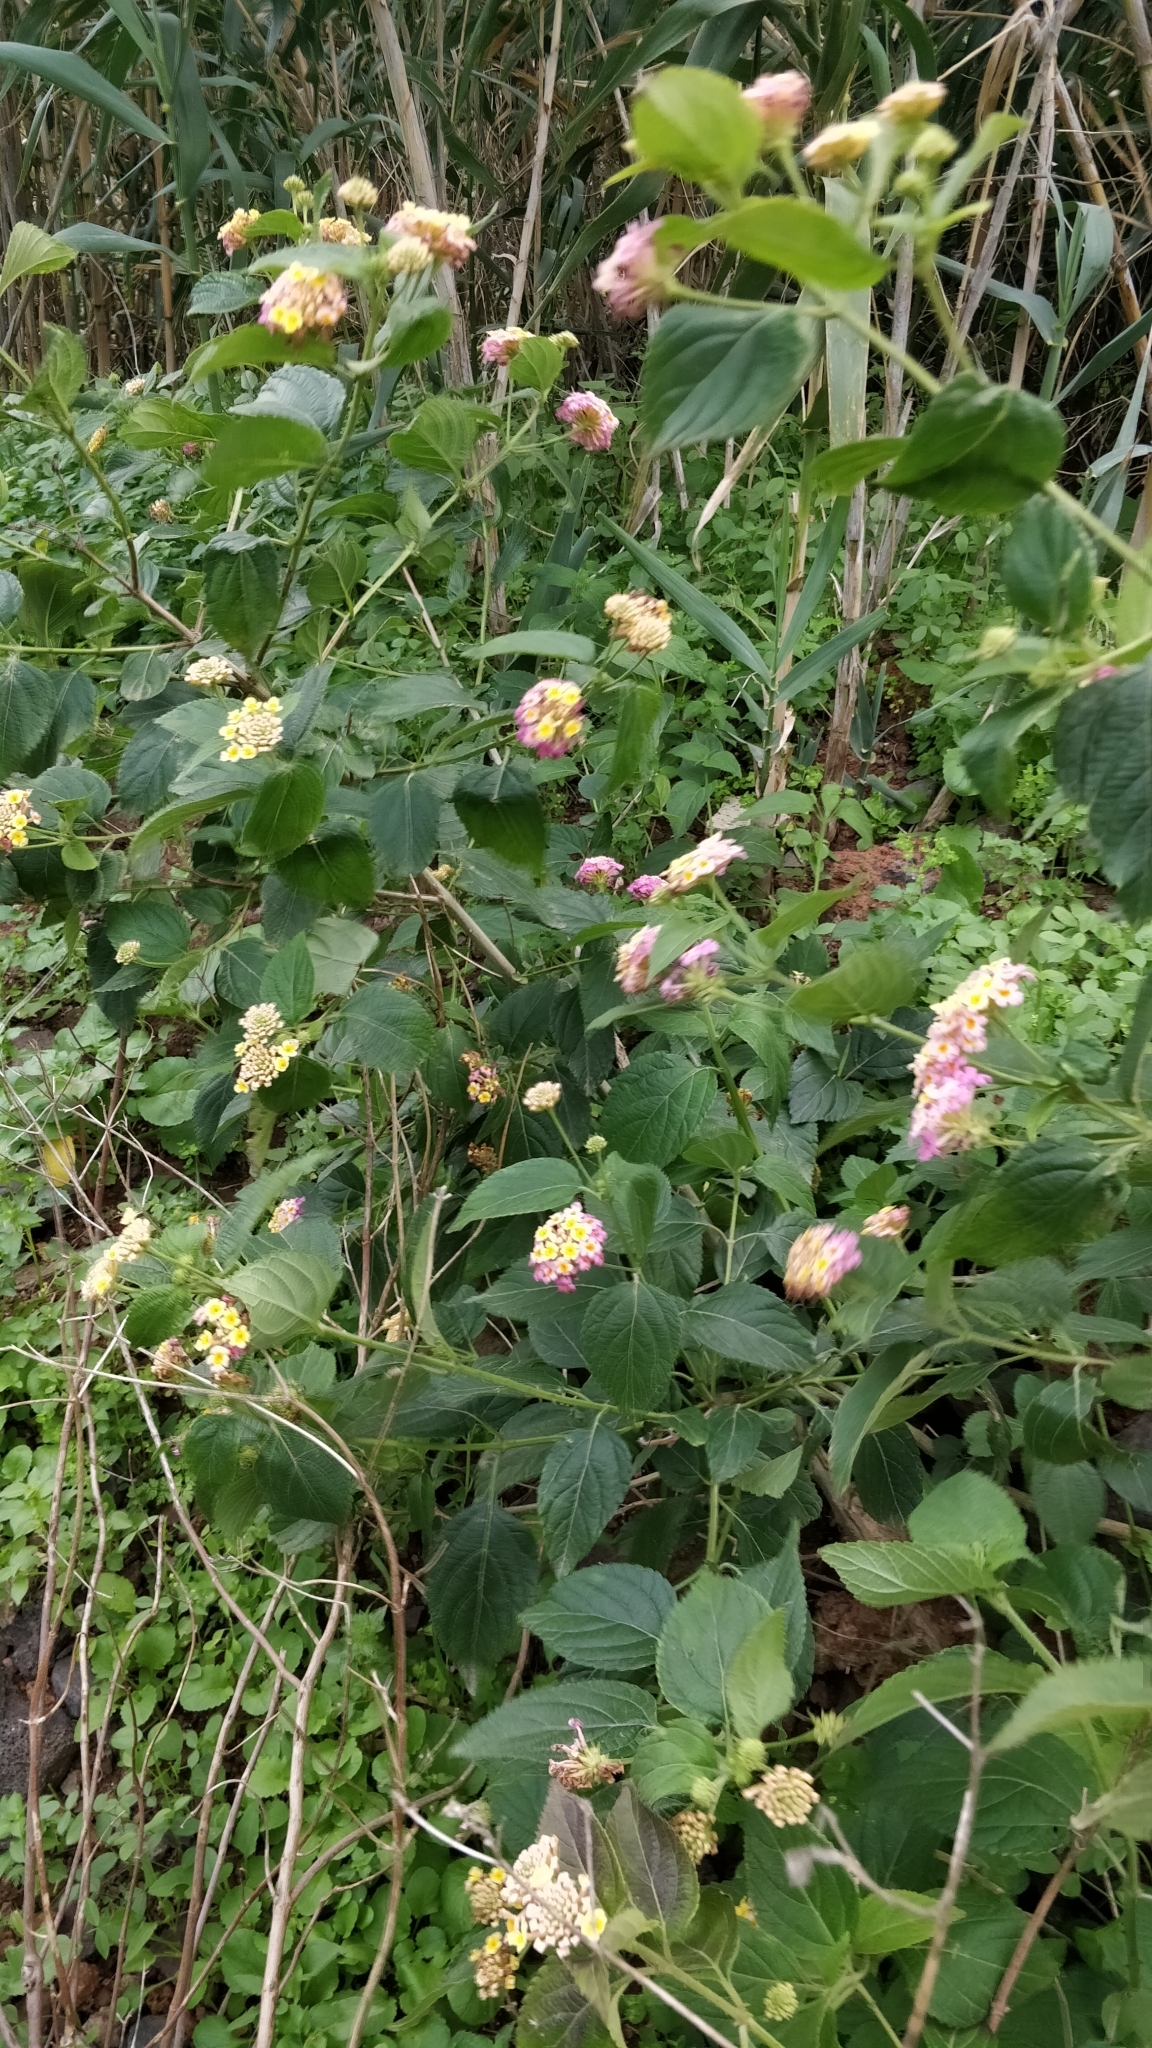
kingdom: Plantae
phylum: Tracheophyta
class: Magnoliopsida
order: Lamiales
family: Verbenaceae
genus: Lantana
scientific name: Lantana camara
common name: Lantana
